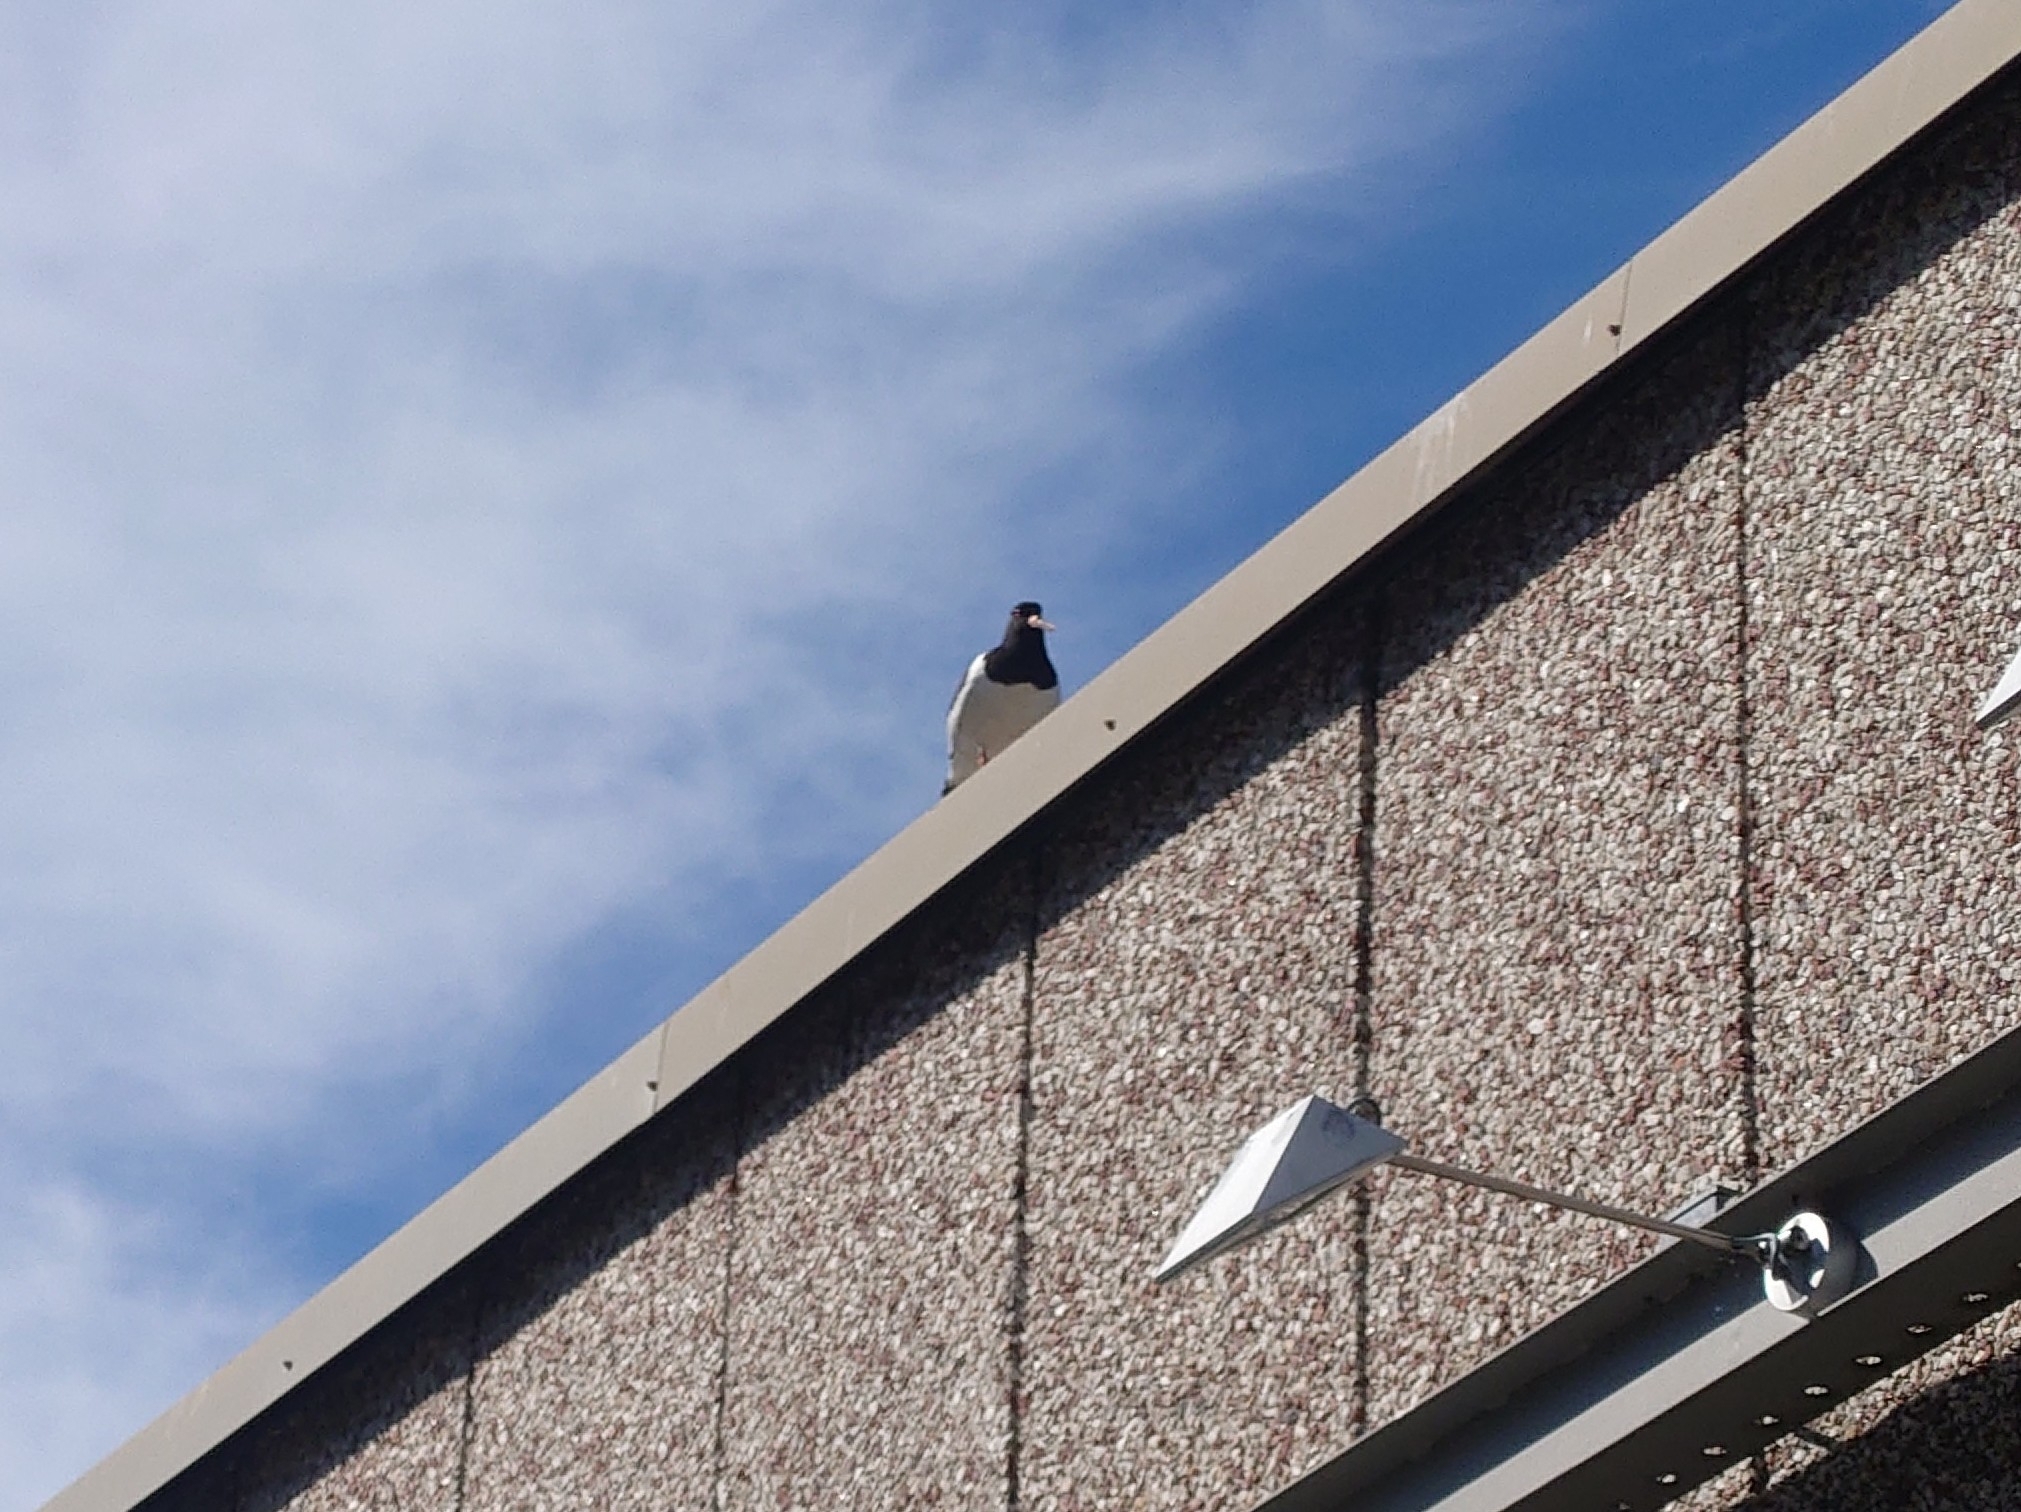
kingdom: Animalia
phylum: Chordata
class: Aves
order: Charadriiformes
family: Haematopodidae
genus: Haematopus
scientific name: Haematopus ostralegus
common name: Eurasian oystercatcher
